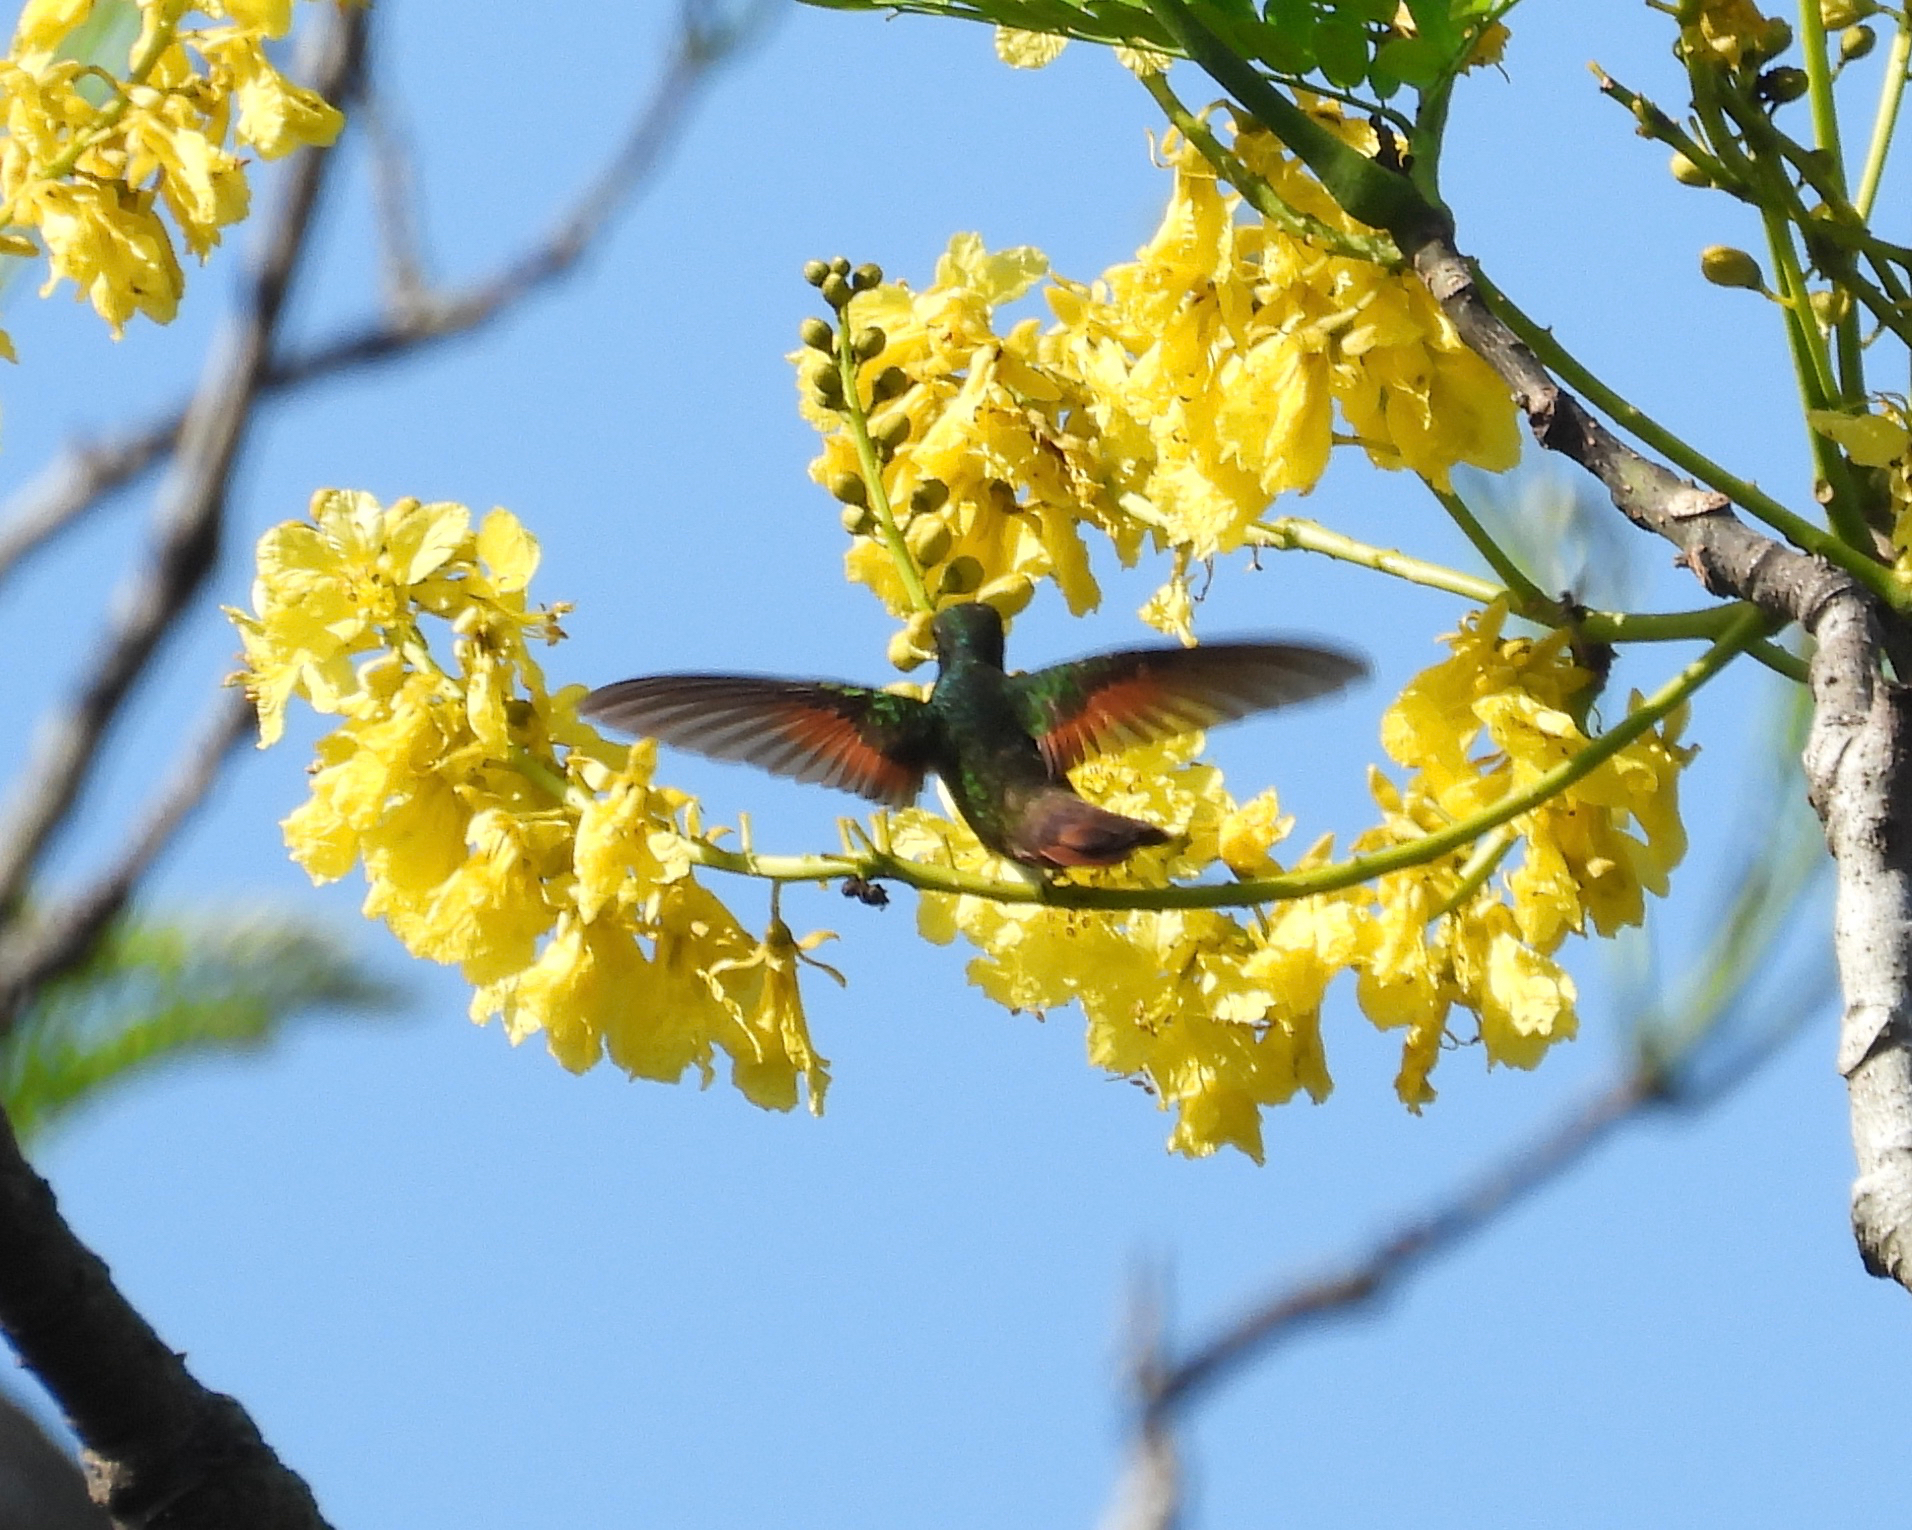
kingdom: Animalia
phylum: Chordata
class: Aves
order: Apodiformes
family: Trochilidae
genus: Saucerottia
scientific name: Saucerottia beryllina
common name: Berylline hummingbird
